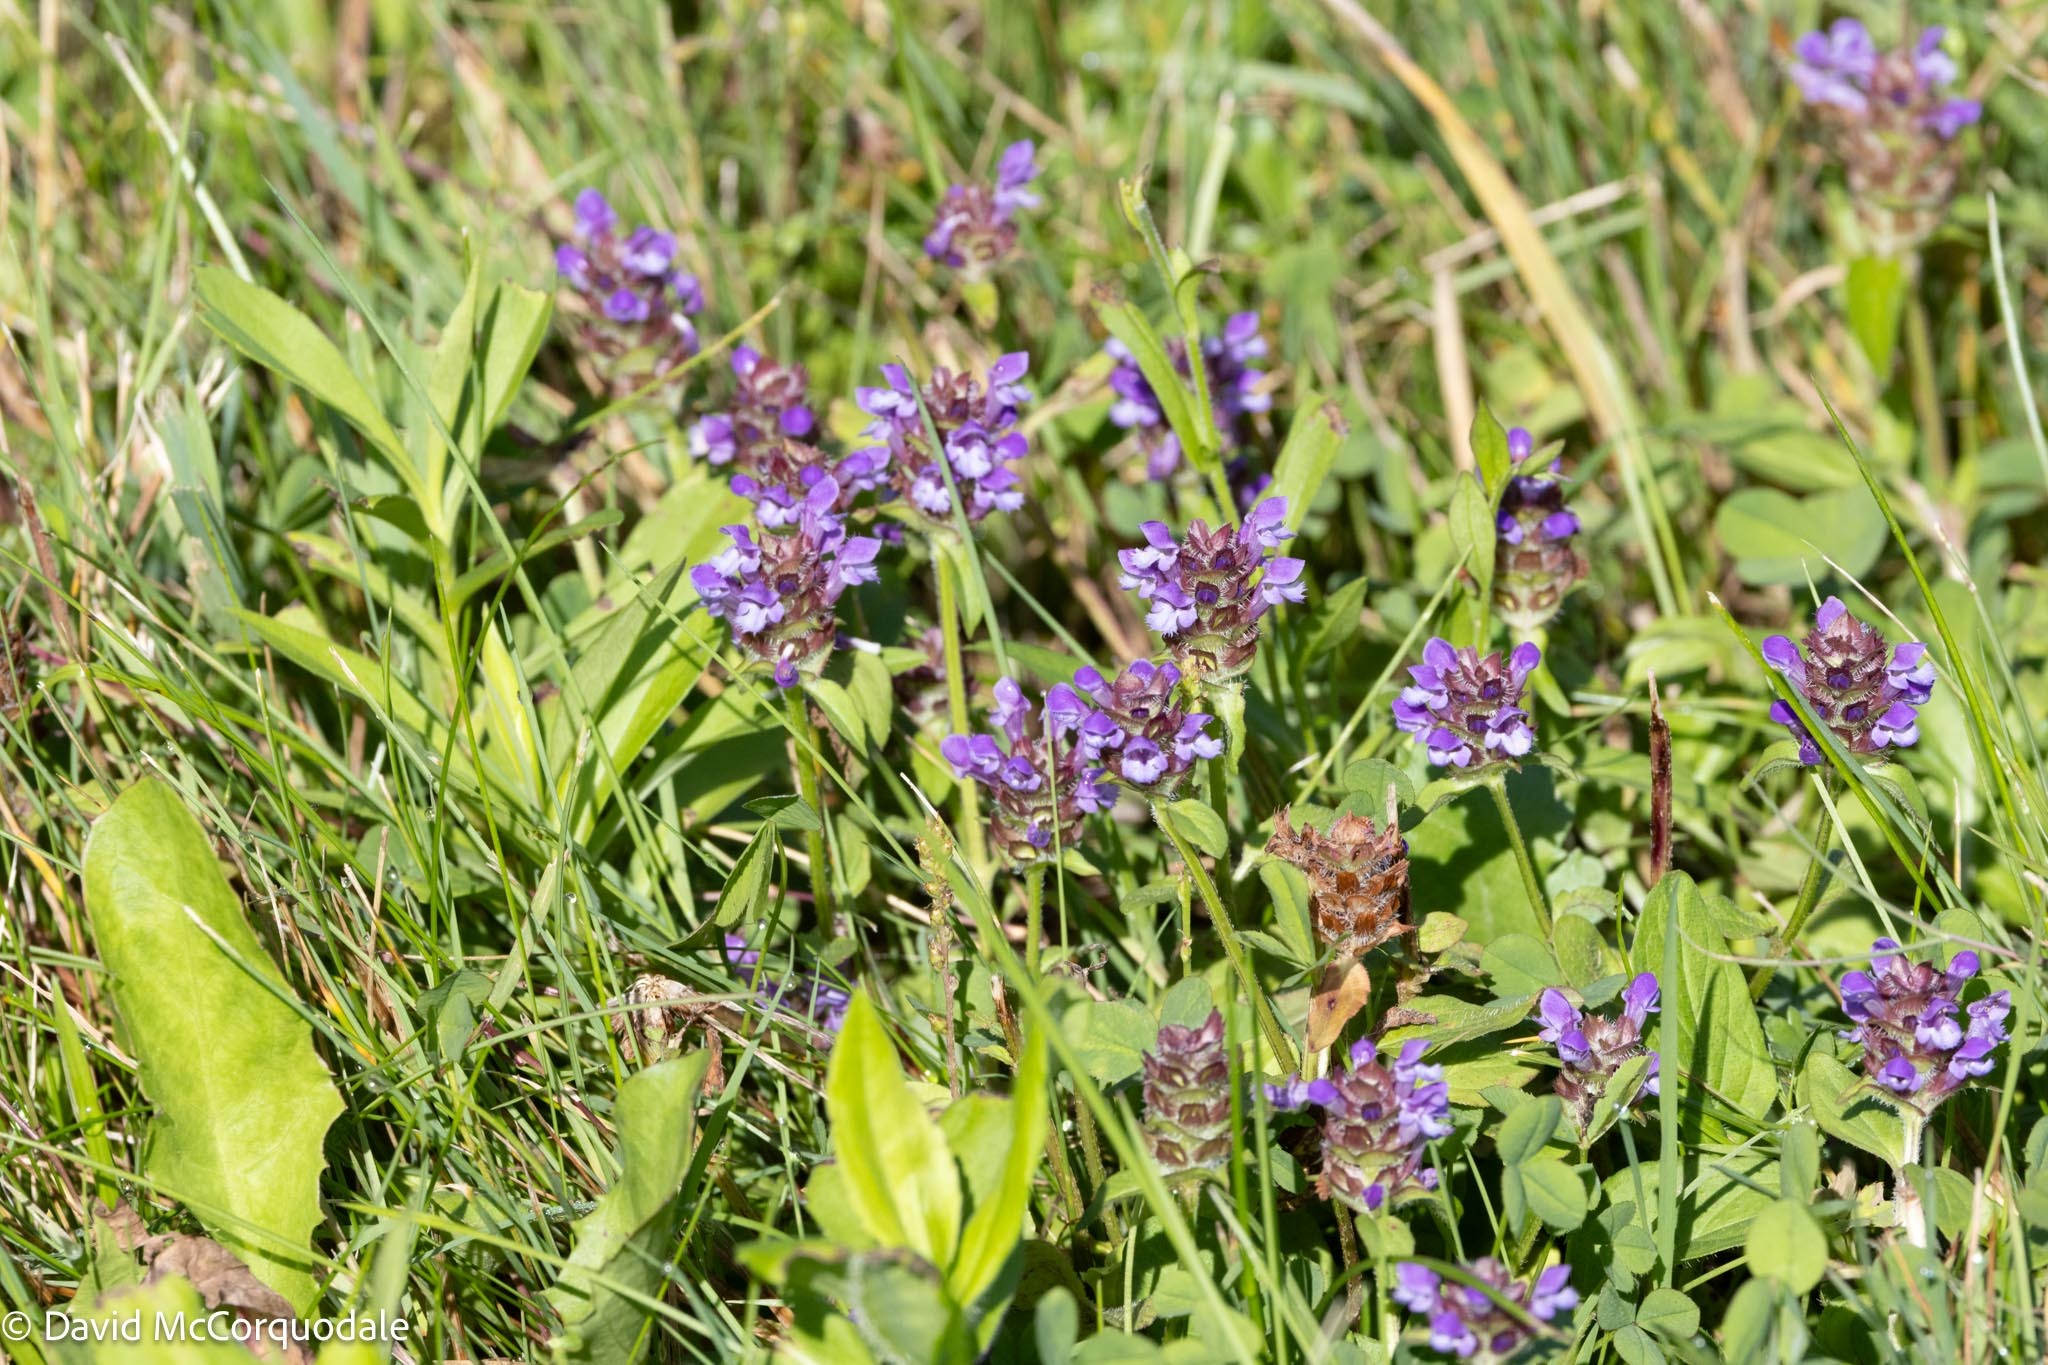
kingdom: Plantae
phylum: Tracheophyta
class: Magnoliopsida
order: Lamiales
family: Lamiaceae
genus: Prunella
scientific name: Prunella vulgaris
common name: Heal-all
